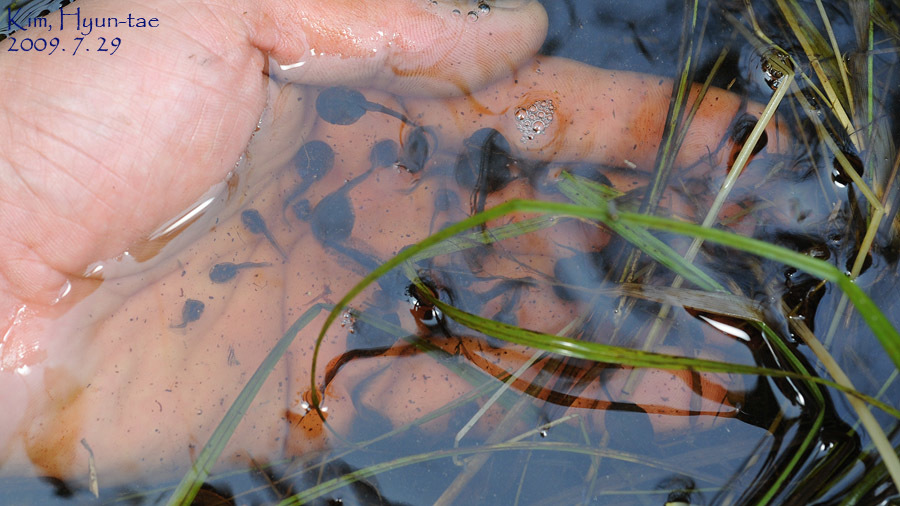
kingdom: Animalia
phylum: Chordata
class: Amphibia
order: Anura
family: Microhylidae
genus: Kaloula
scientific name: Kaloula borealis
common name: Boreal digging frog
